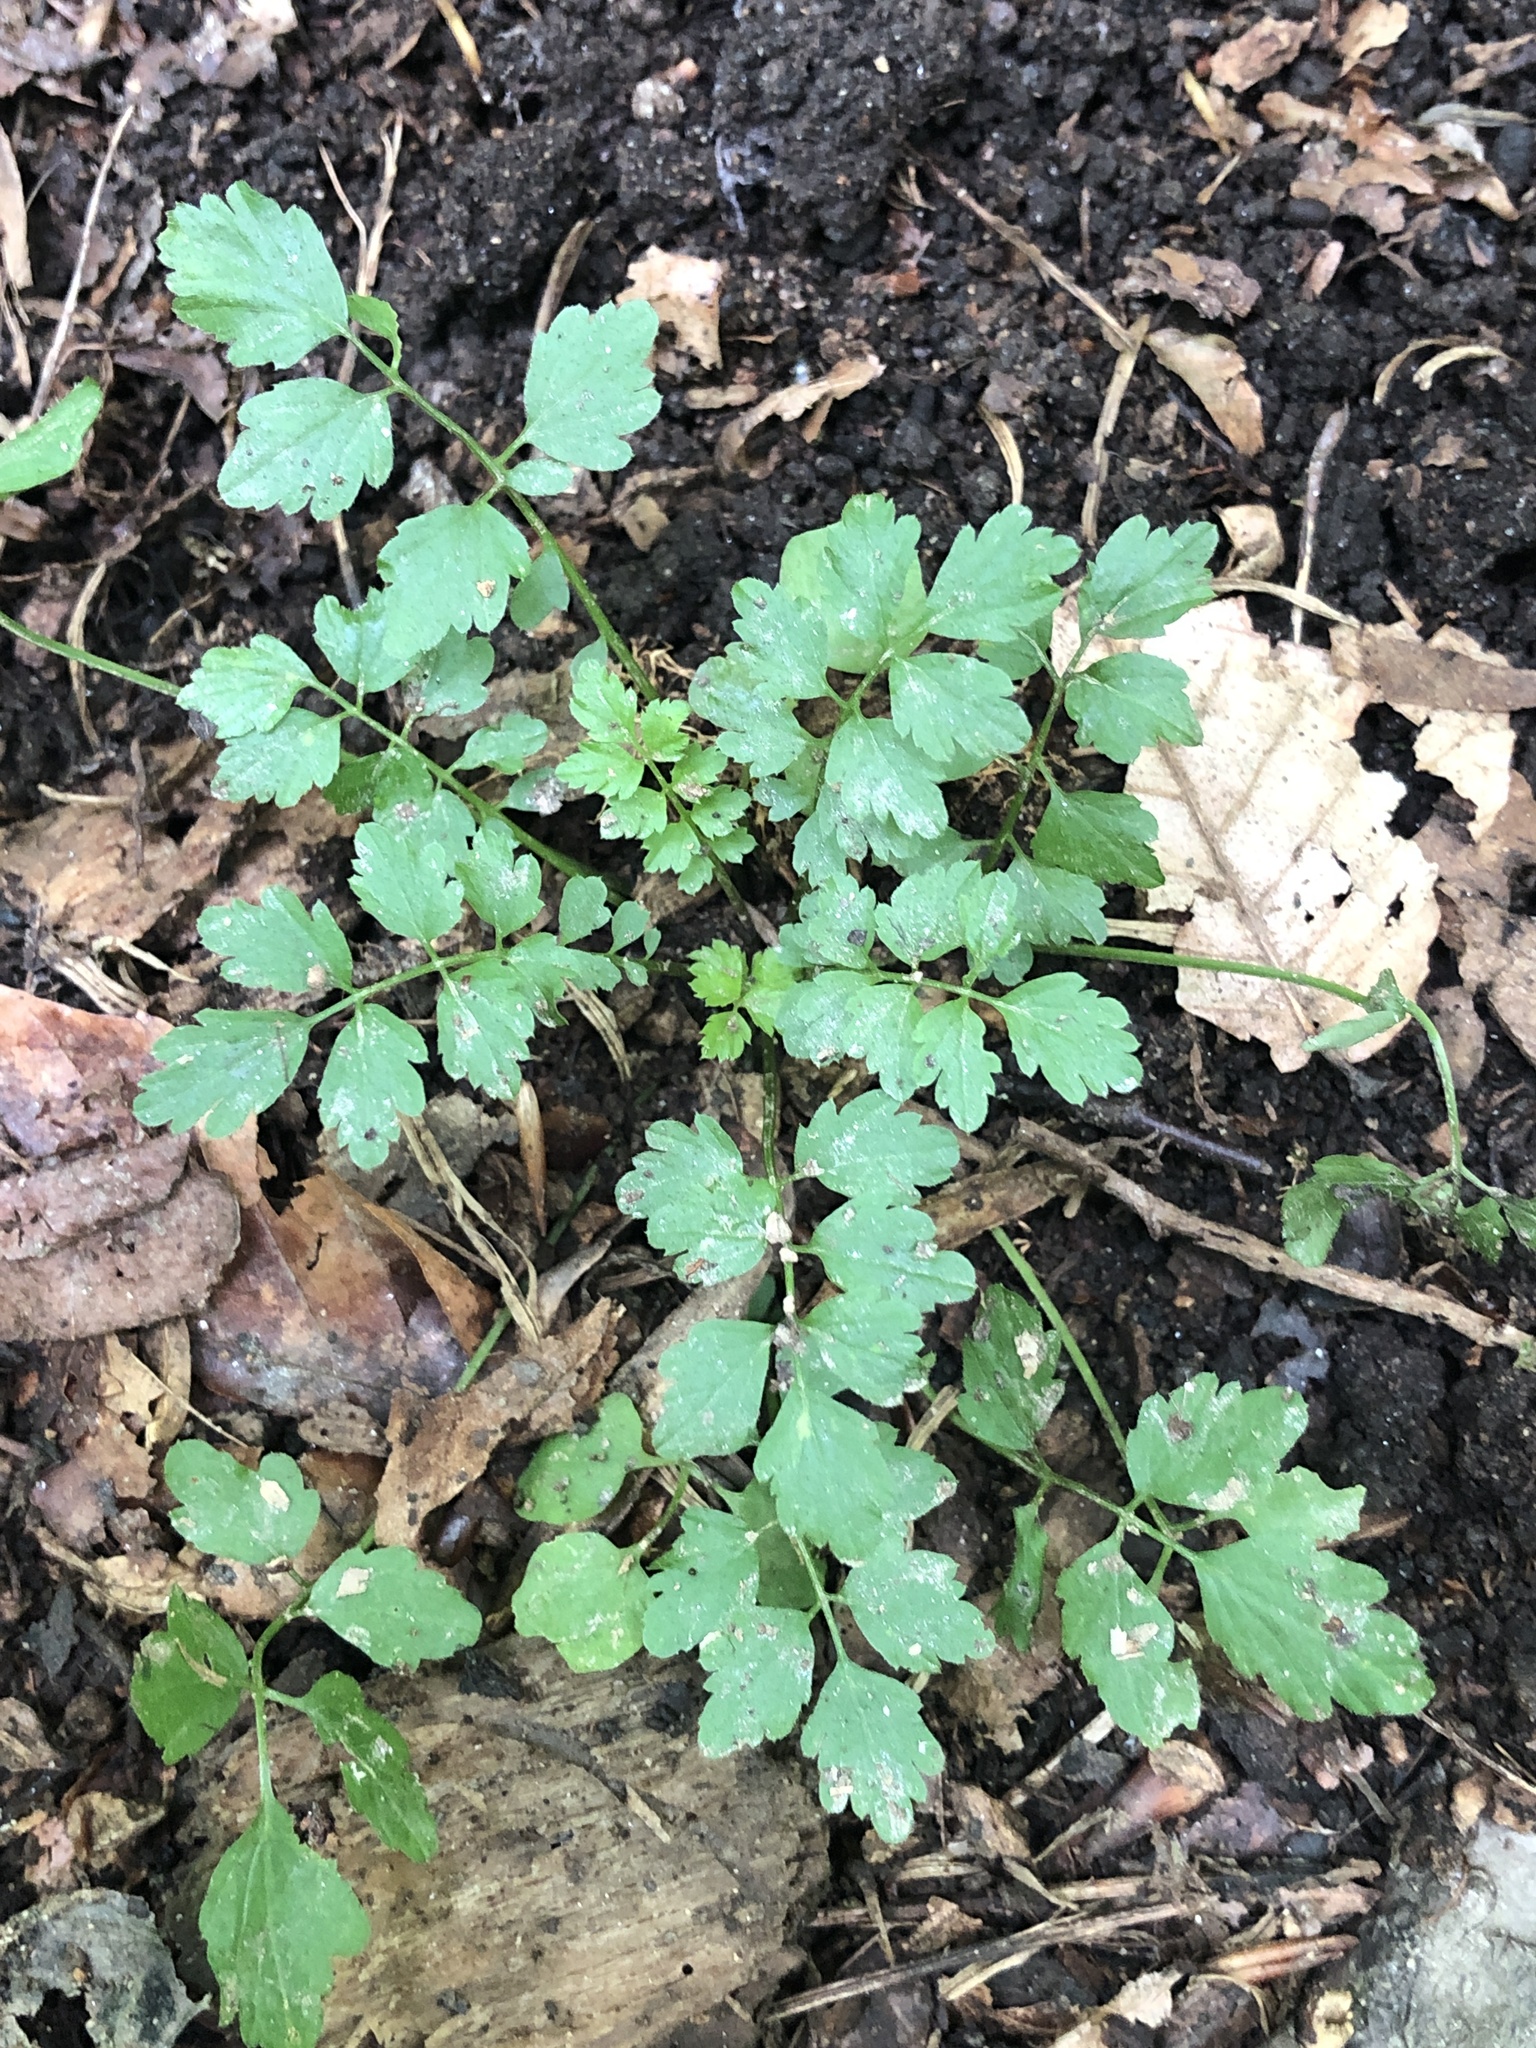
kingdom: Plantae
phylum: Tracheophyta
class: Magnoliopsida
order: Brassicales
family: Brassicaceae
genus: Cardamine
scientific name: Cardamine impatiens
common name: Narrow-leaved bitter-cress
